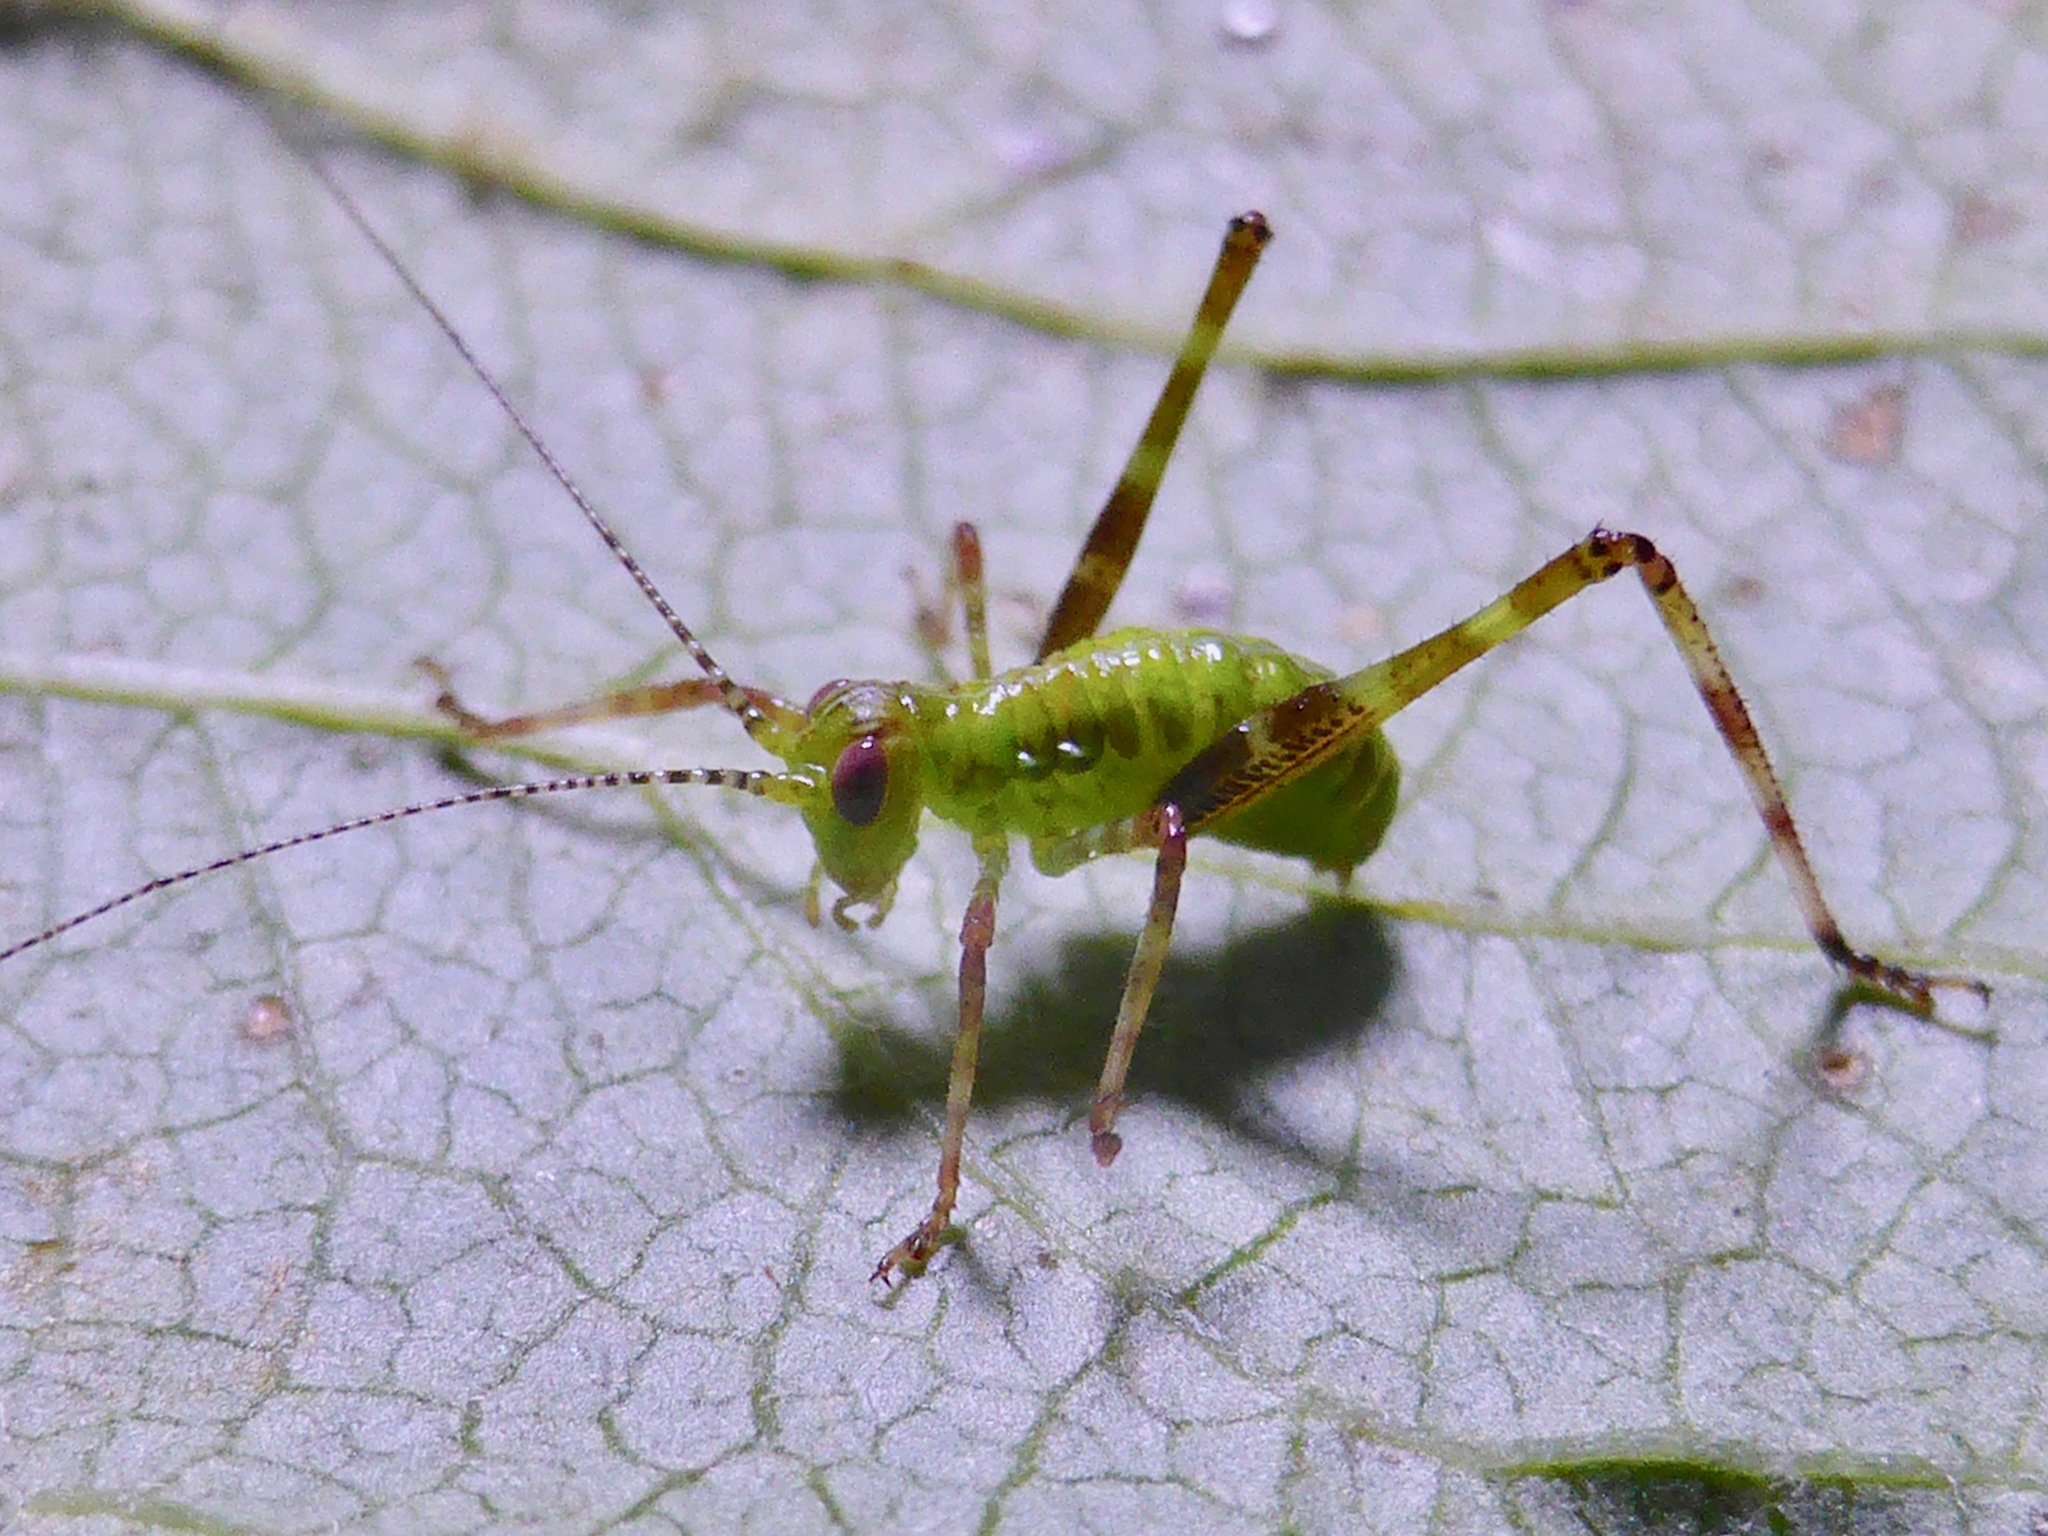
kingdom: Animalia
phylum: Arthropoda
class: Insecta
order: Orthoptera
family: Tettigoniidae
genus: Caedicia
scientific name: Caedicia simplex
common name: Common garden katydid
